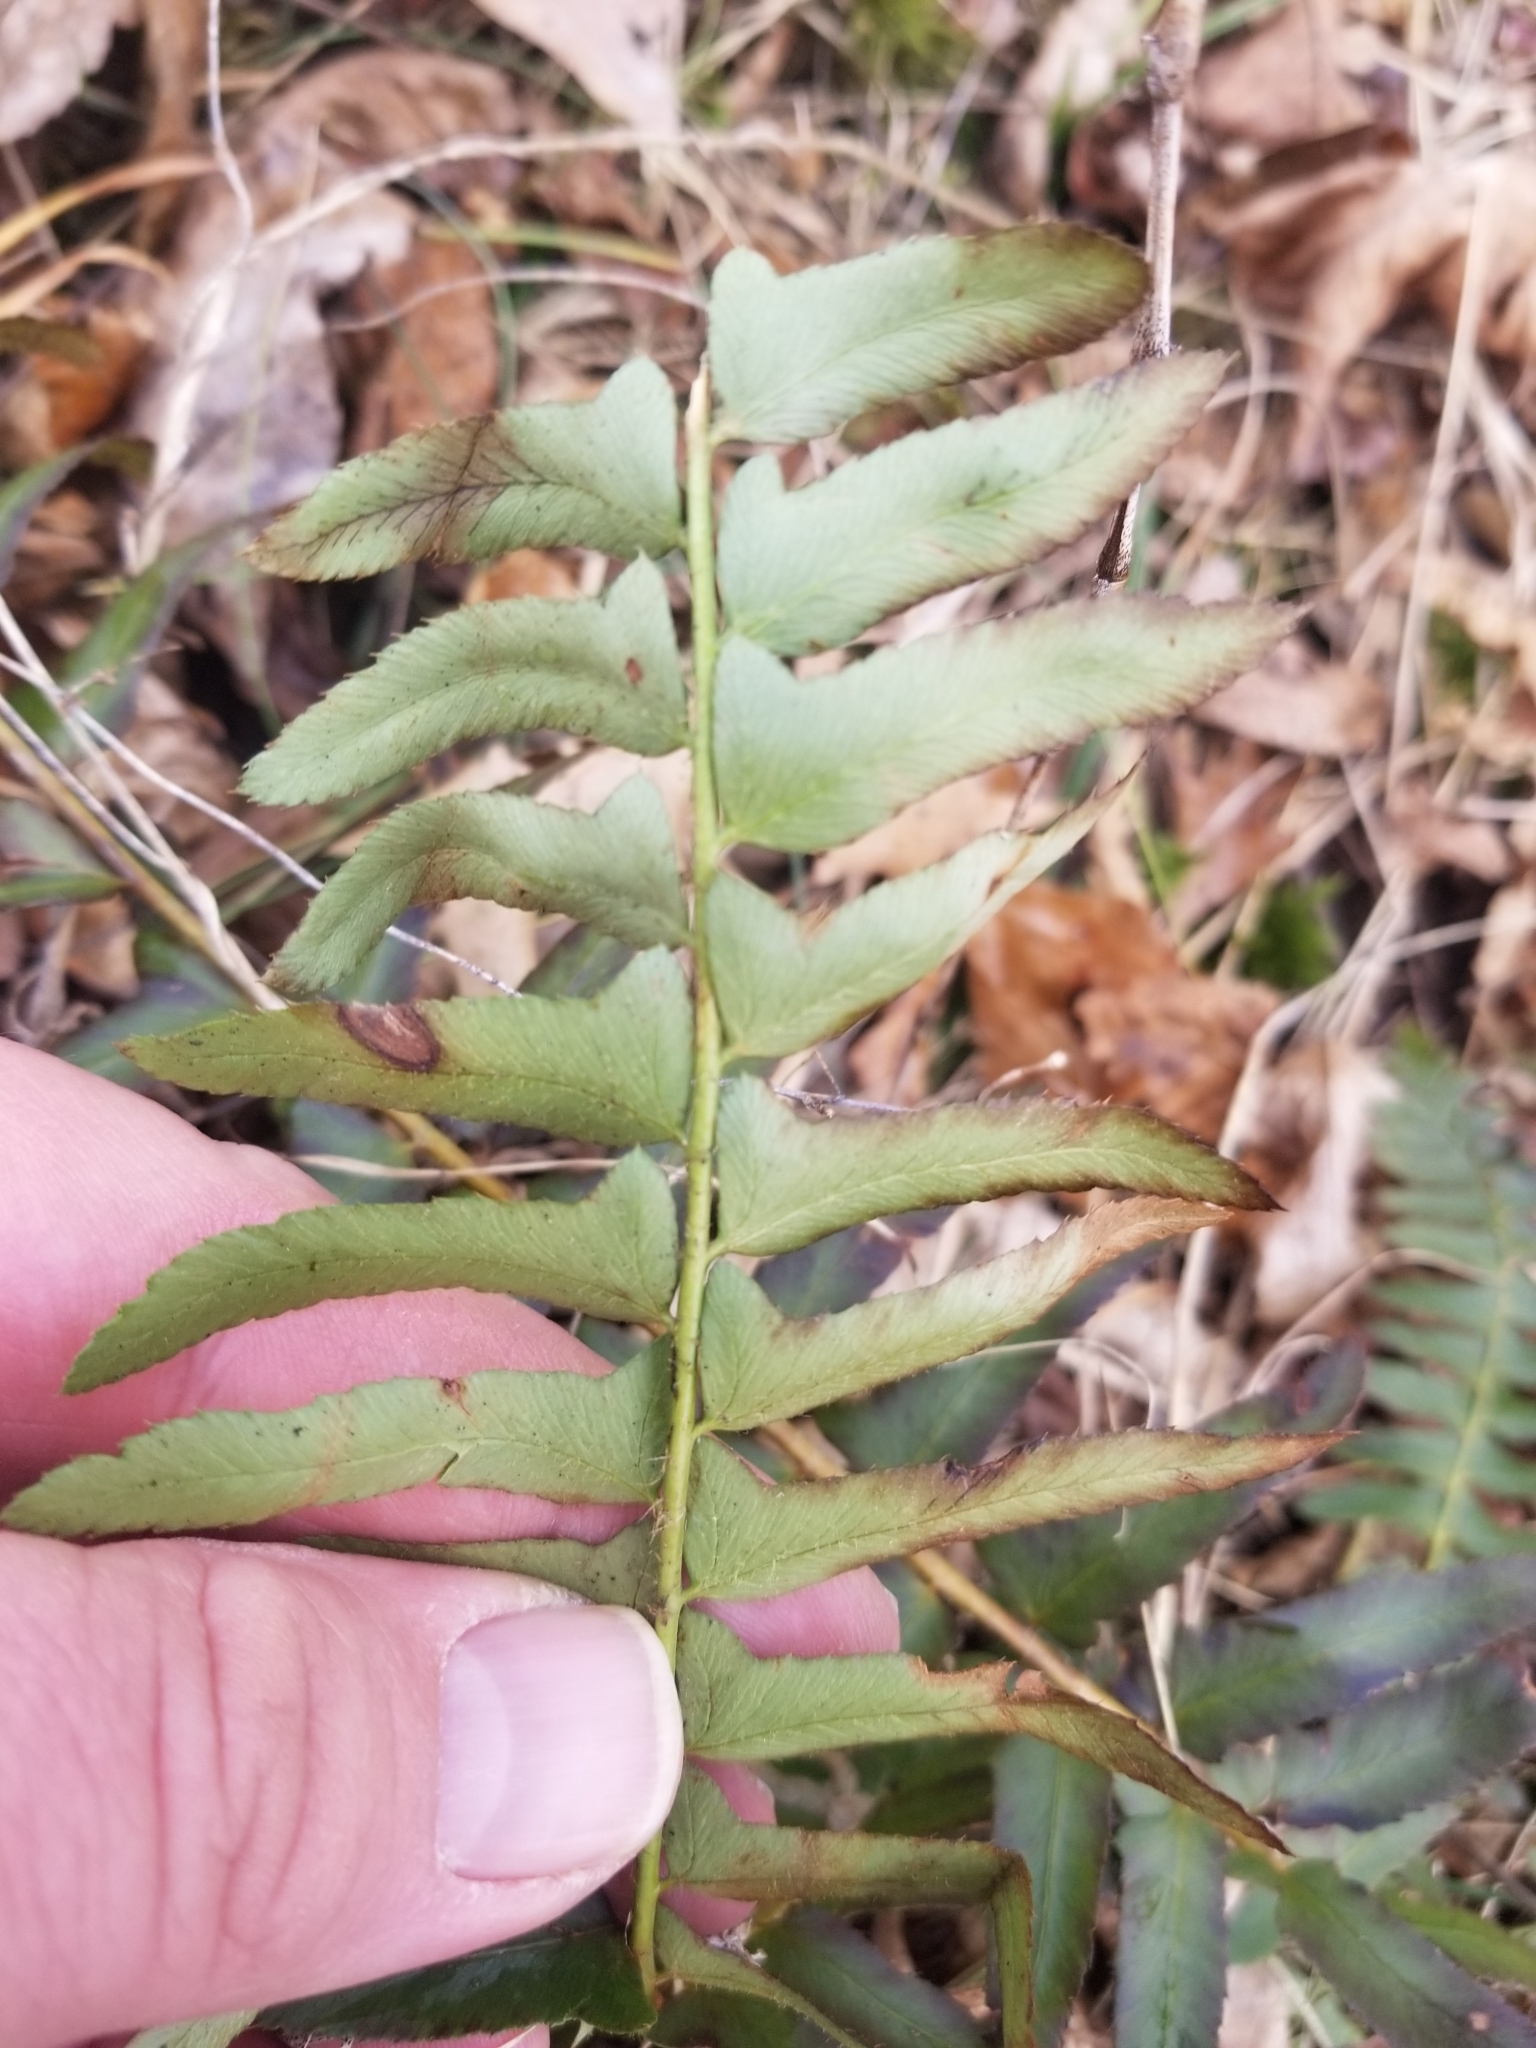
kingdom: Plantae
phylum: Tracheophyta
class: Polypodiopsida
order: Polypodiales
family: Dryopteridaceae
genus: Polystichum
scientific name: Polystichum acrostichoides
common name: Christmas fern
